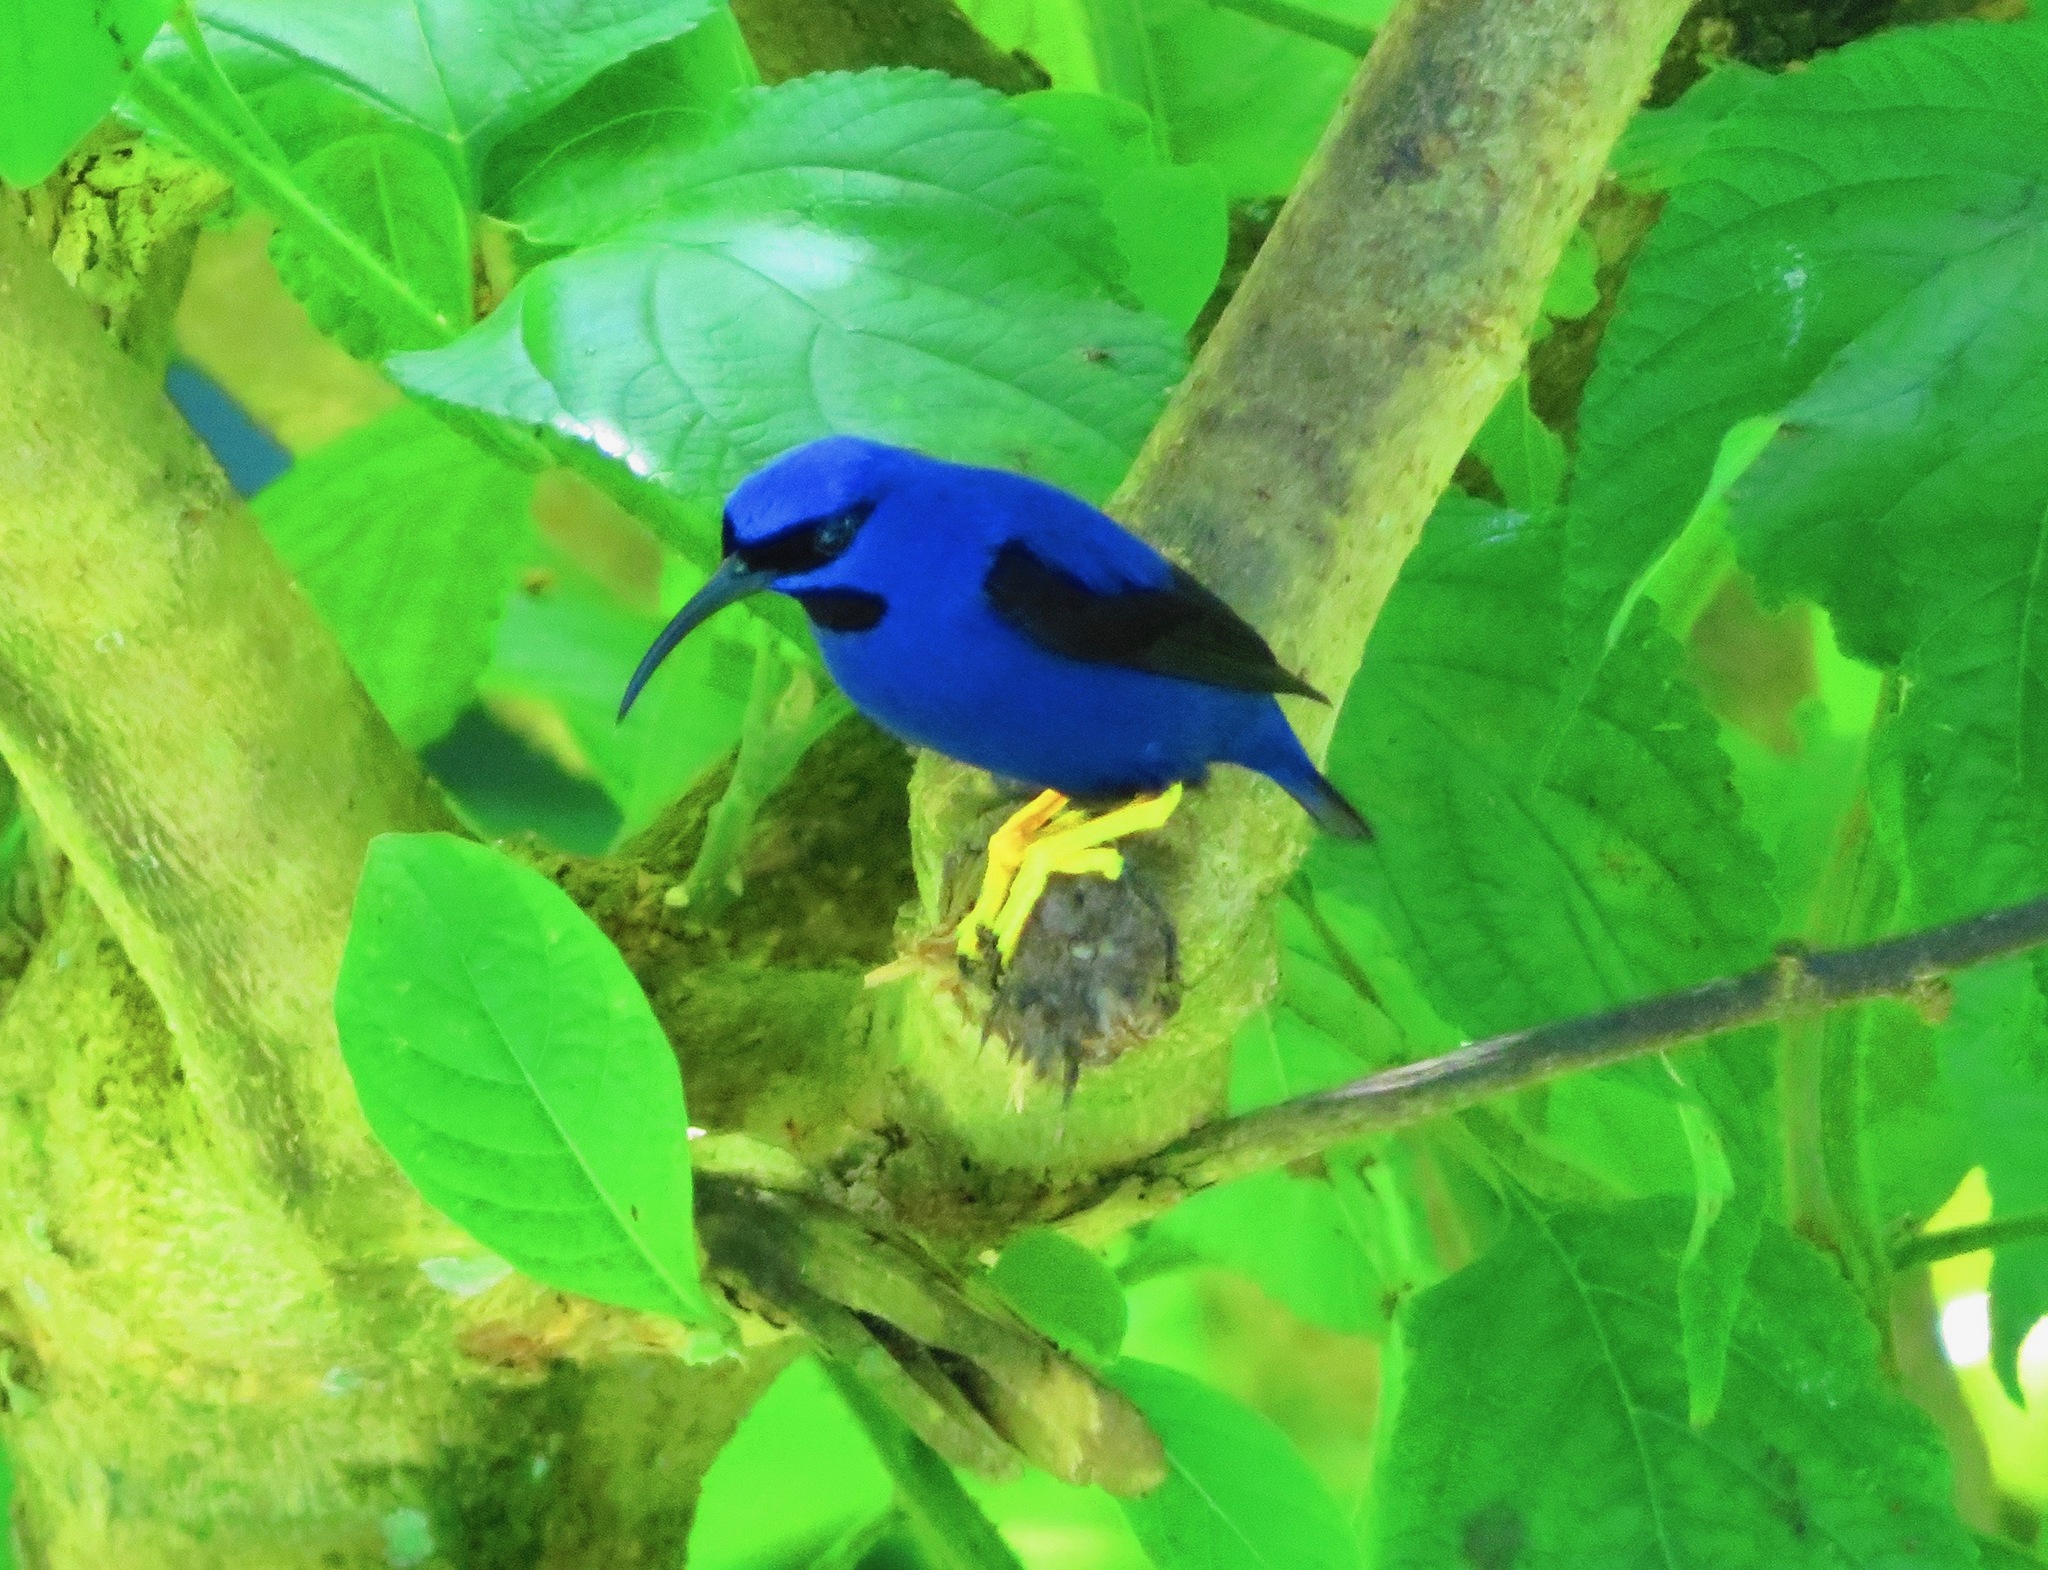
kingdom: Animalia
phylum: Chordata
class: Aves
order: Passeriformes
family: Thraupidae
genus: Cyanerpes
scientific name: Cyanerpes caeruleus
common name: Purple honeycreeper
